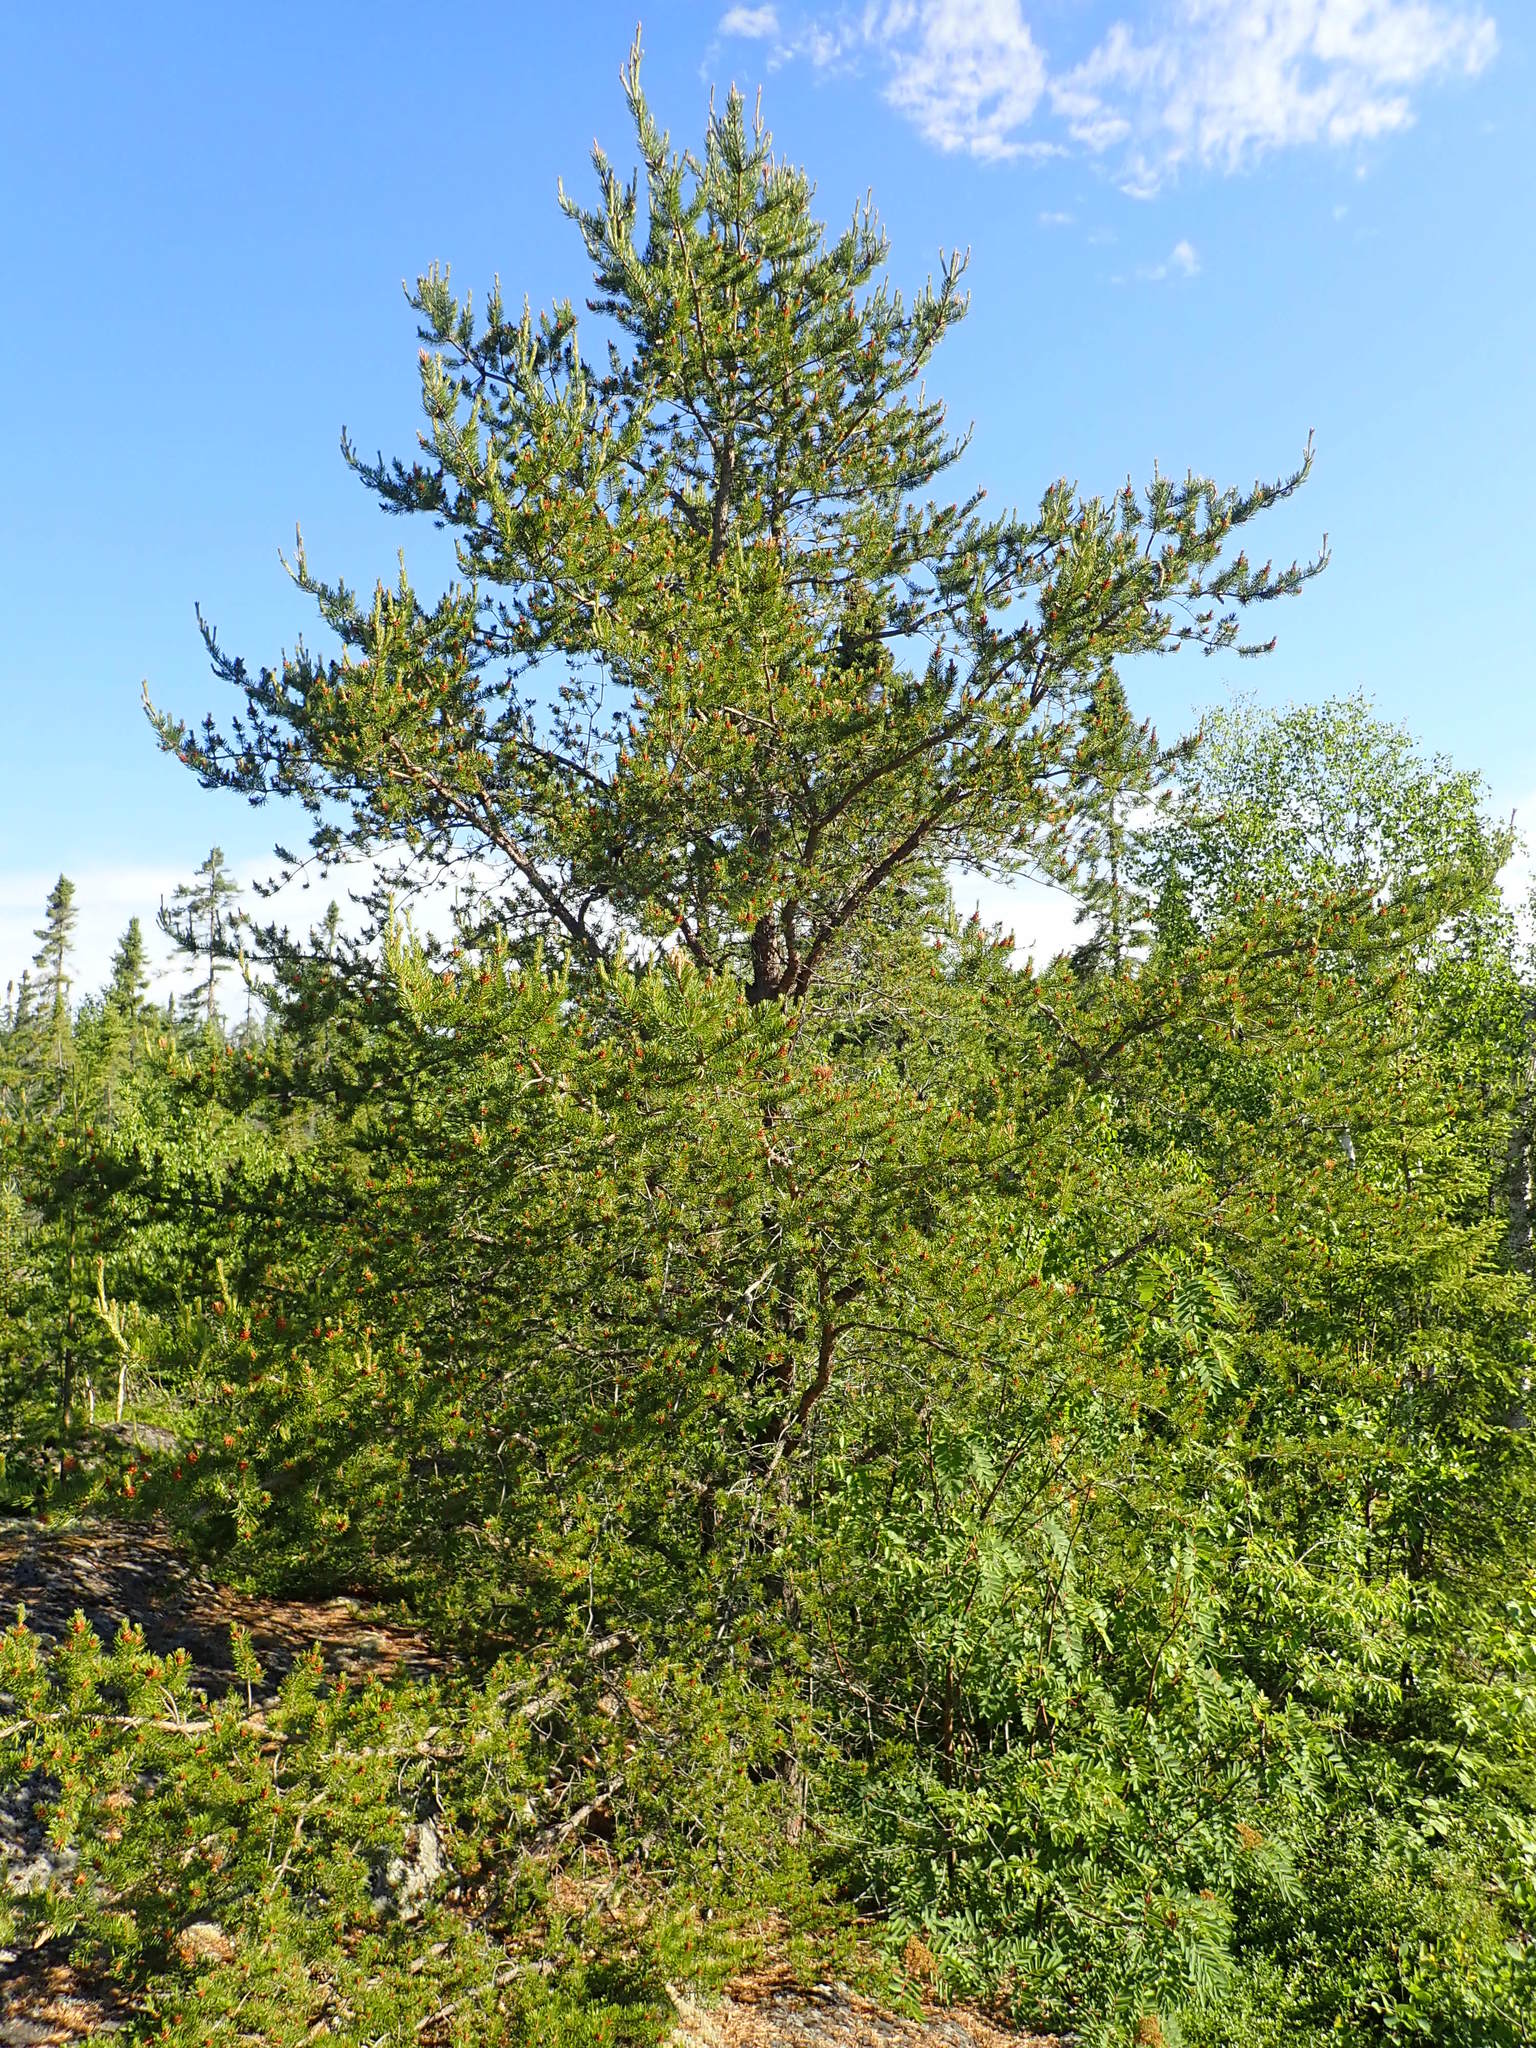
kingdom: Plantae
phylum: Tracheophyta
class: Pinopsida
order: Pinales
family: Pinaceae
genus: Pinus
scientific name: Pinus banksiana
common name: Jack pine
